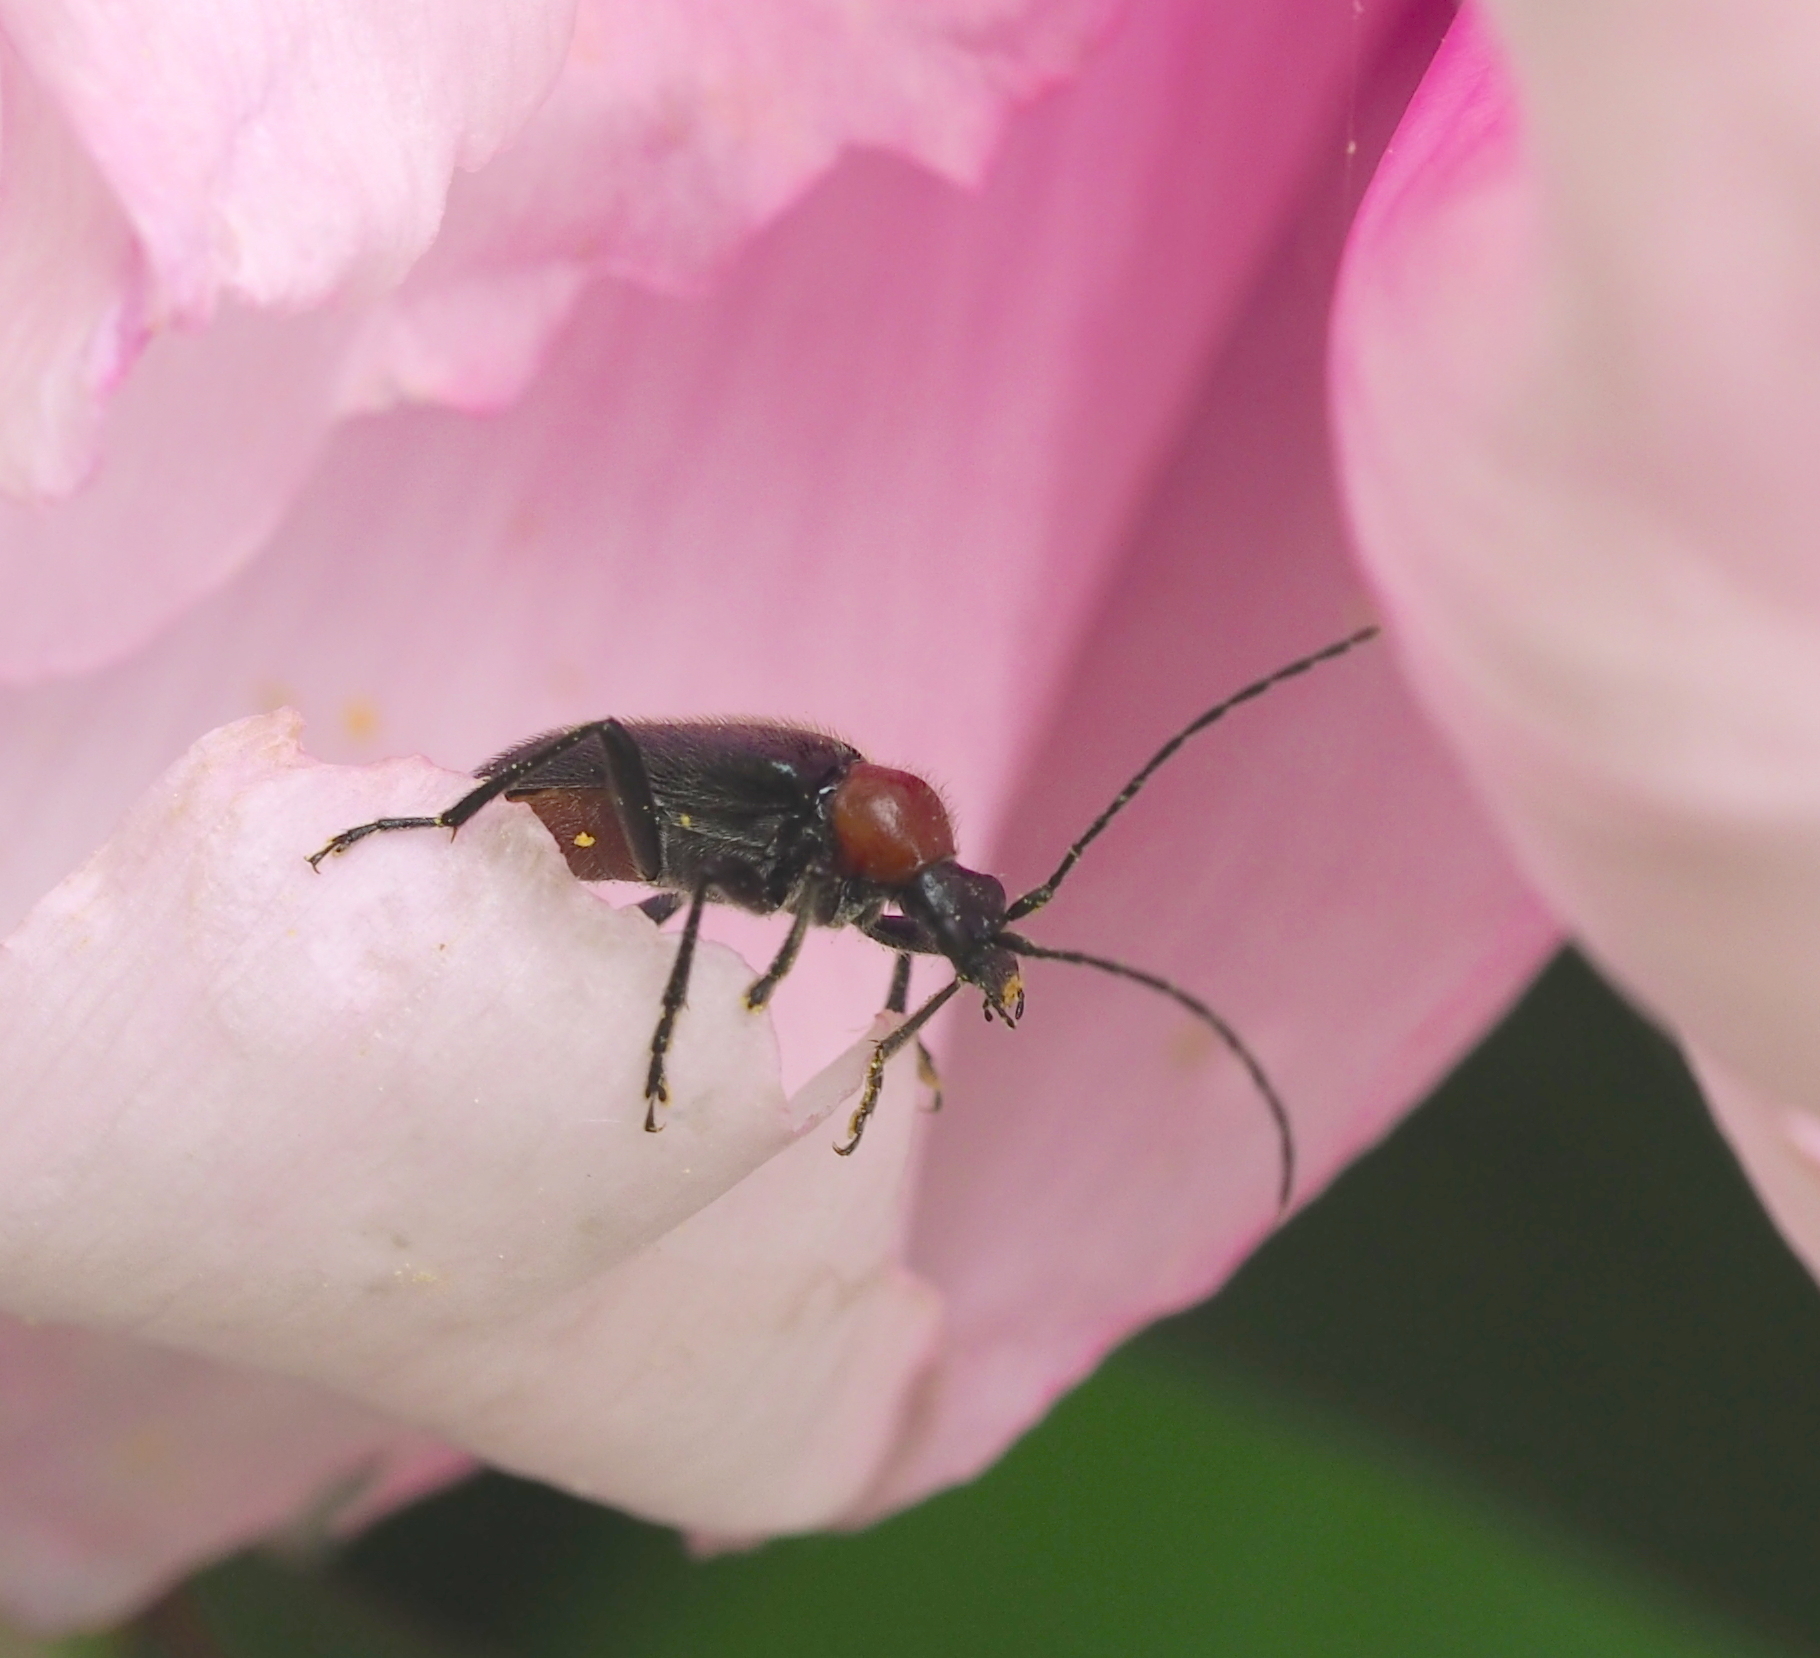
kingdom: Animalia
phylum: Arthropoda
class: Insecta
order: Coleoptera
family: Cerambycidae
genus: Dinoptera
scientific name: Dinoptera collaris
